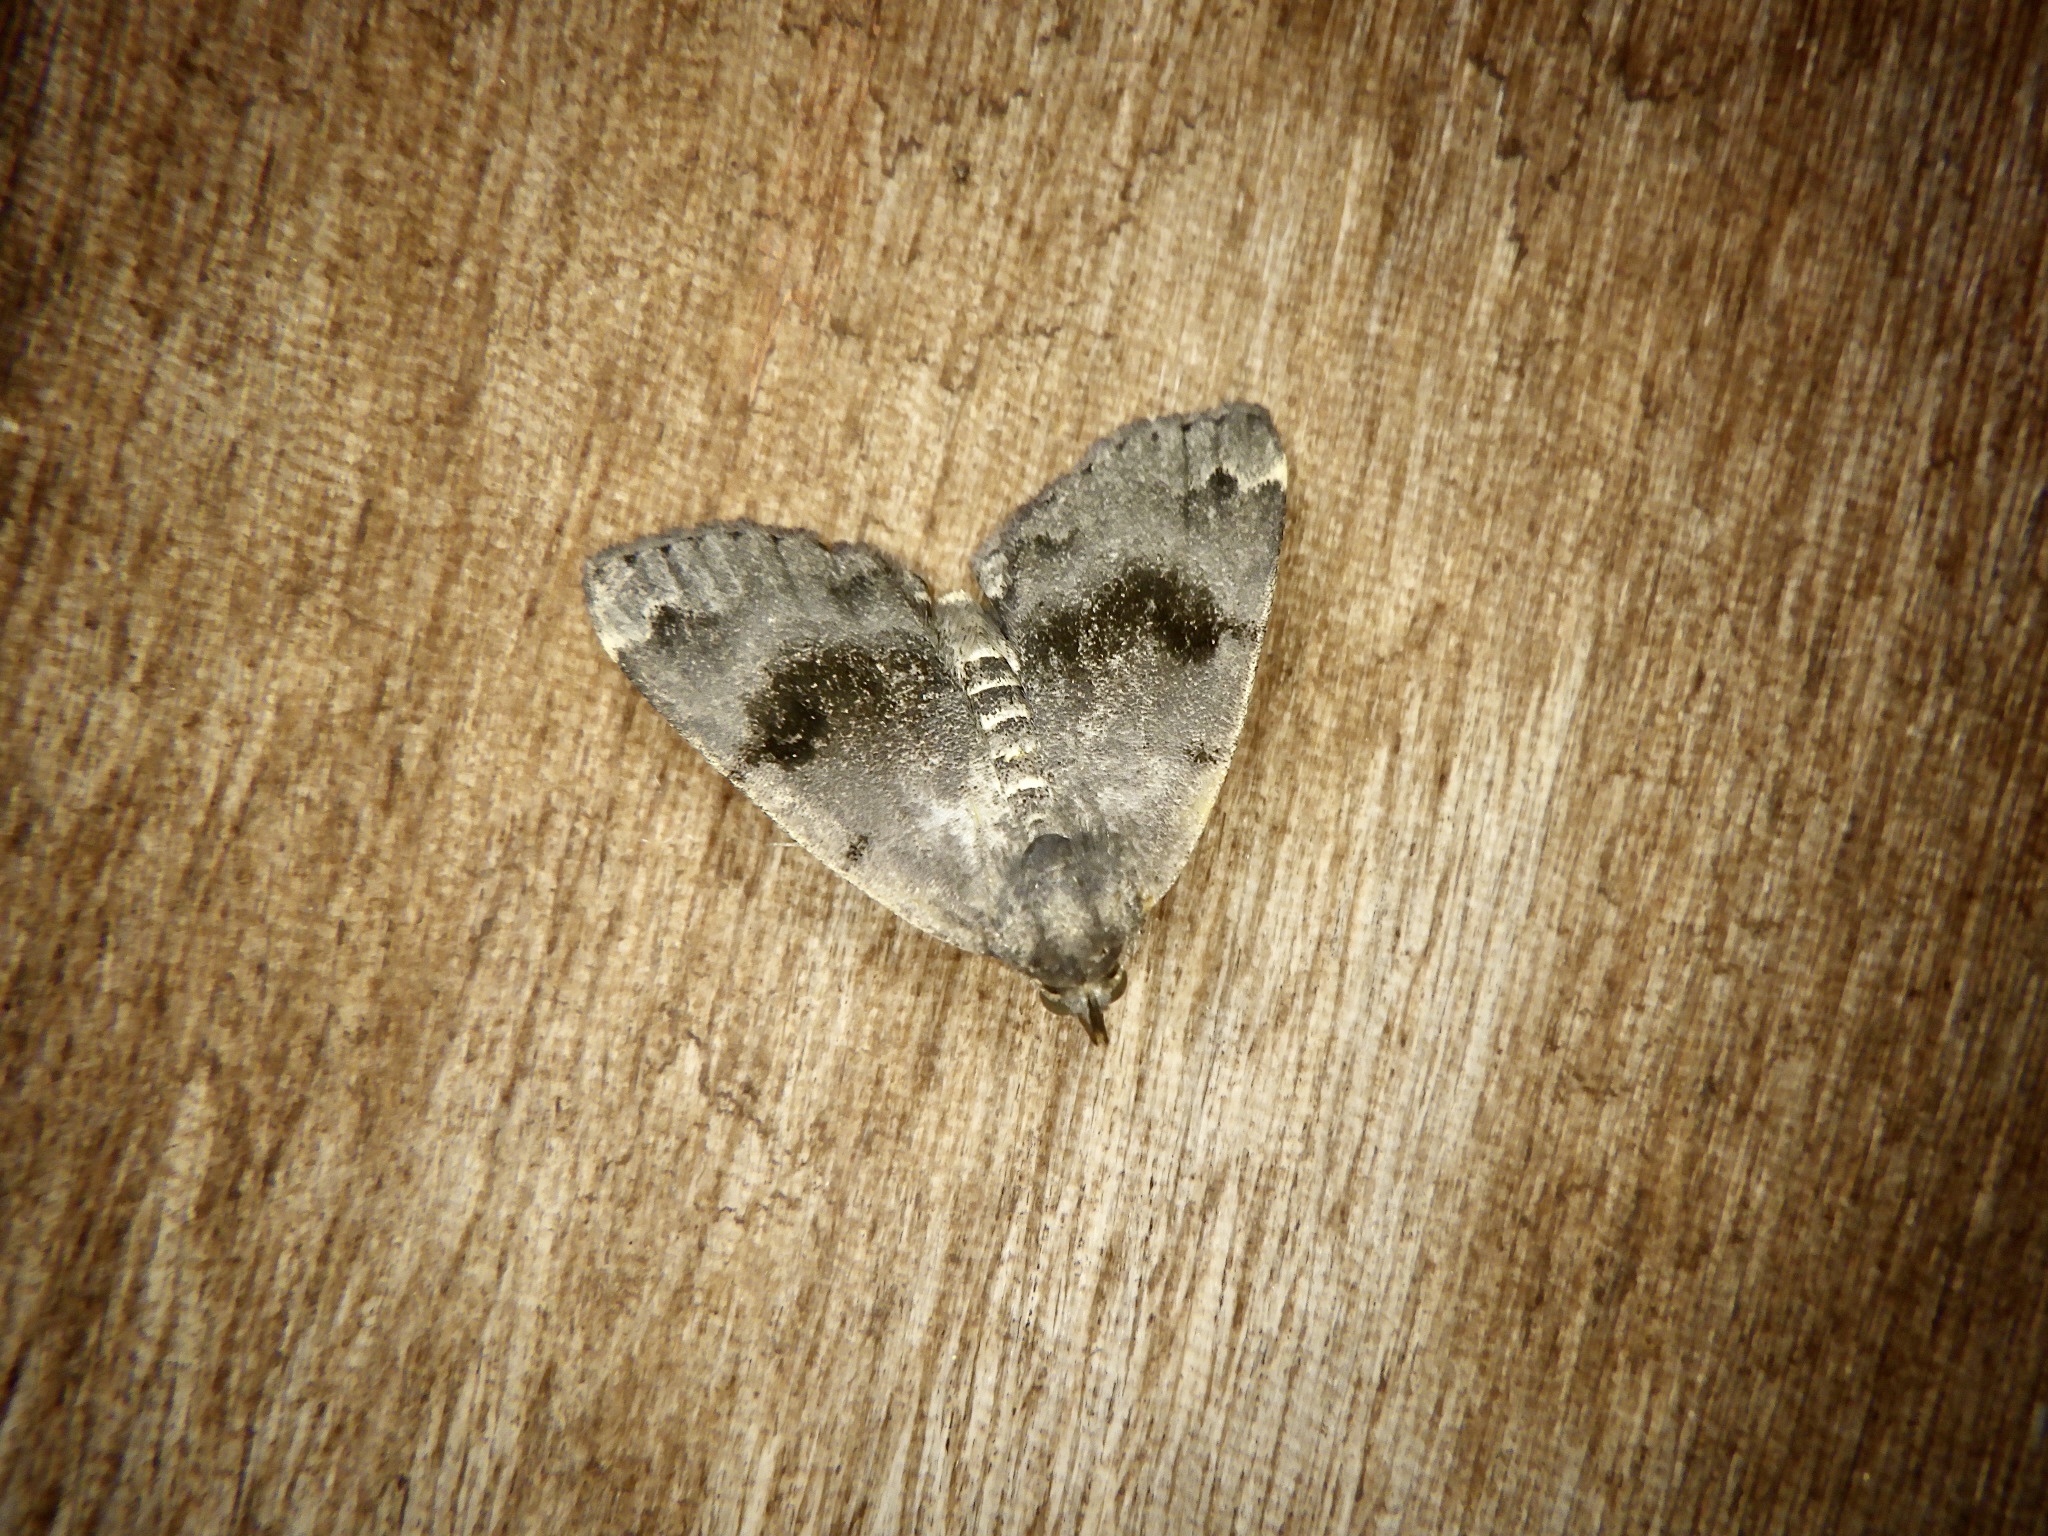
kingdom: Animalia
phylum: Arthropoda
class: Insecta
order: Lepidoptera
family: Erebidae
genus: Sinarella
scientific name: Sinarella
